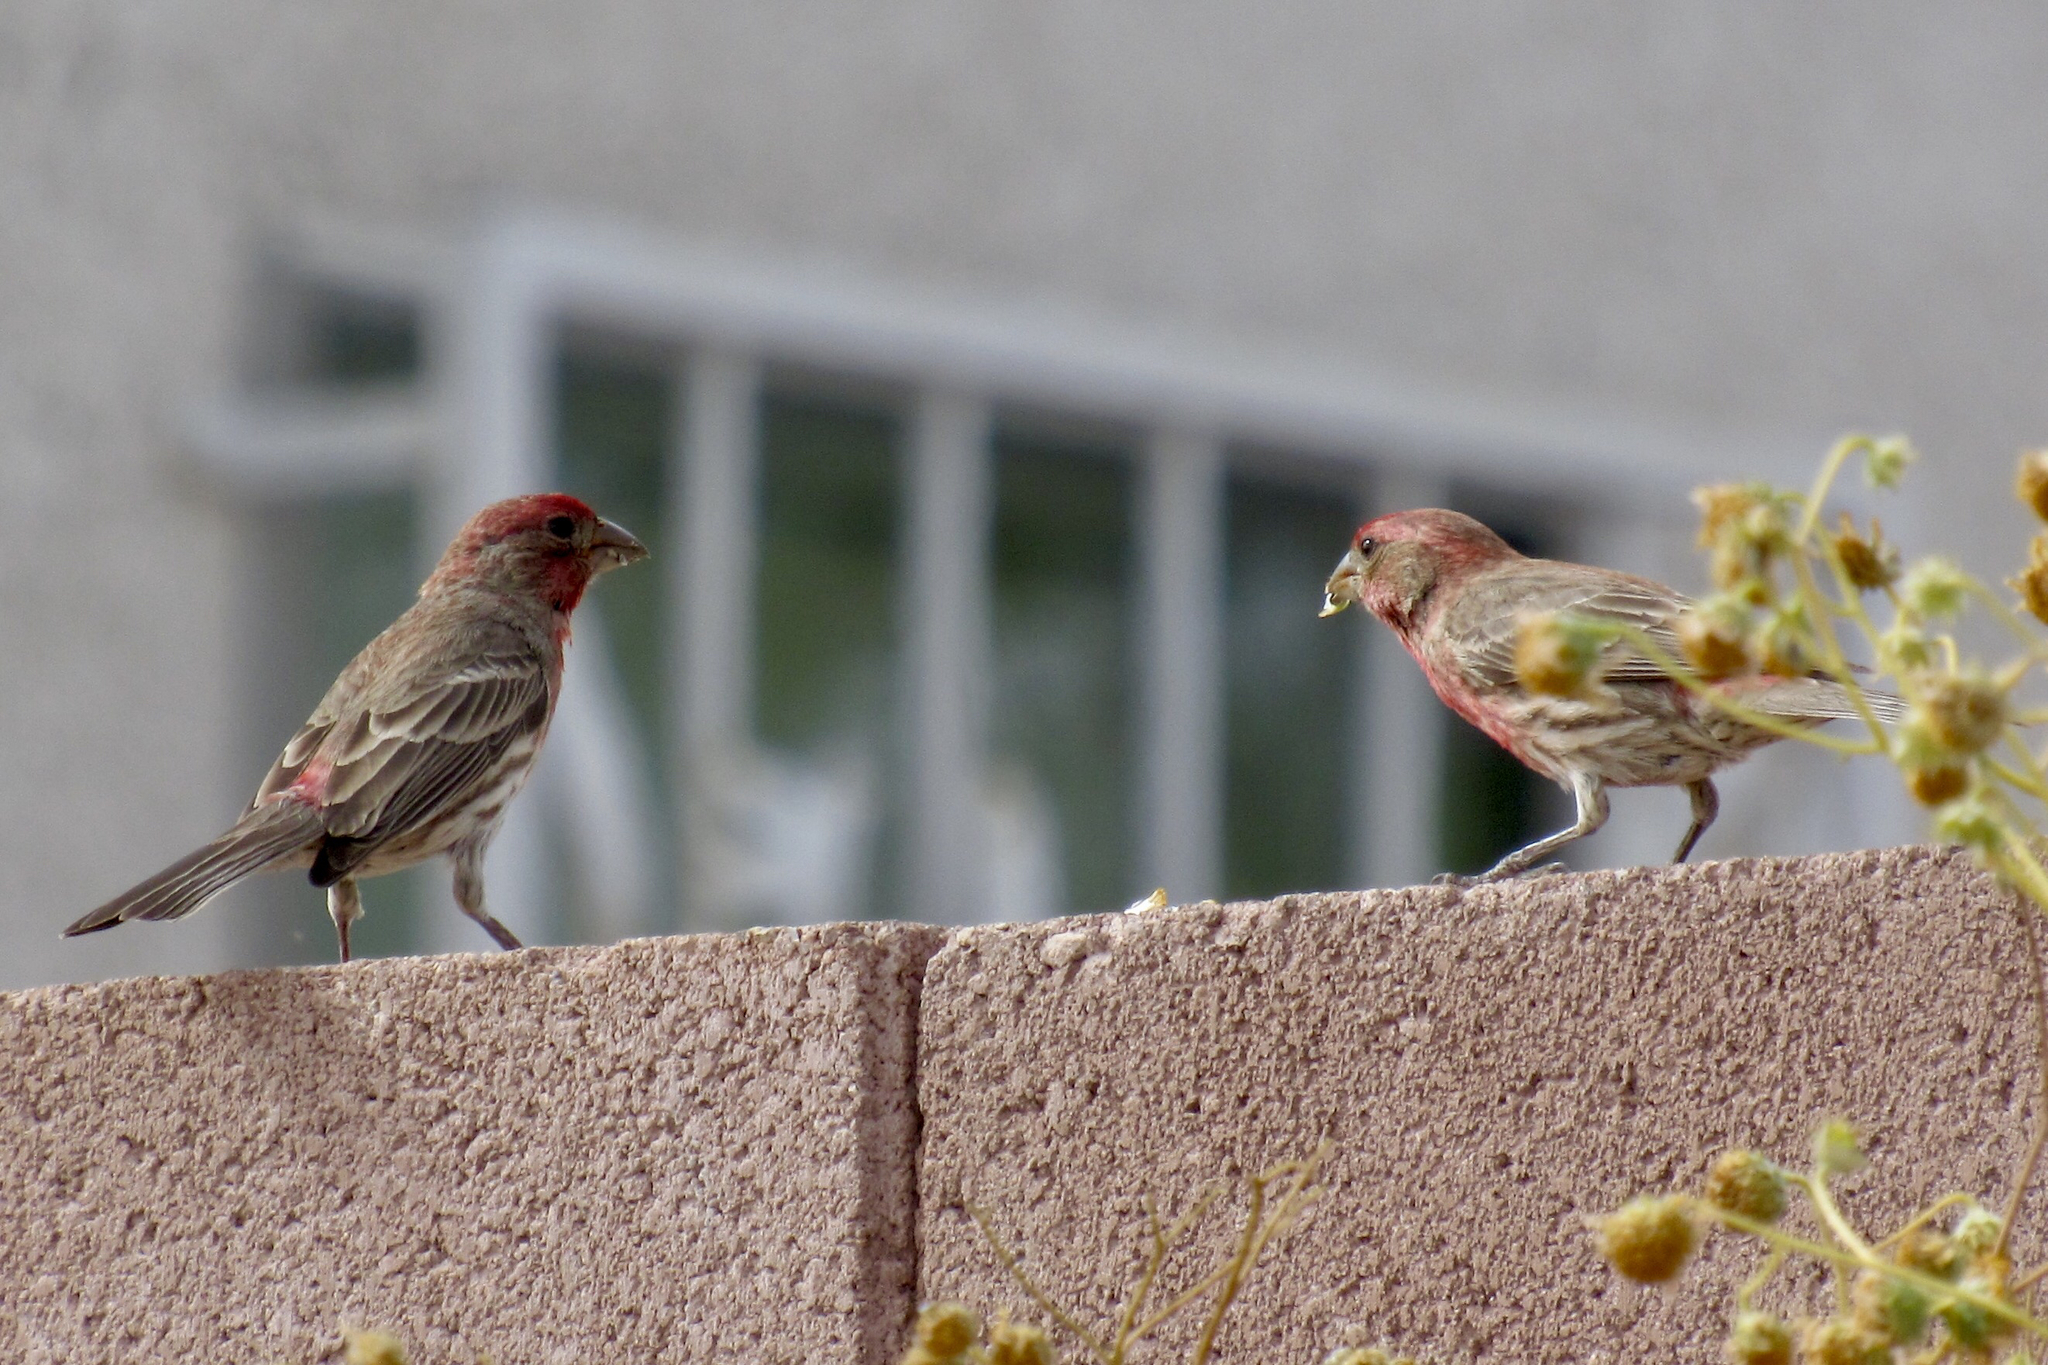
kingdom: Animalia
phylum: Chordata
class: Aves
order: Passeriformes
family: Fringillidae
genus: Haemorhous
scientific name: Haemorhous mexicanus
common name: House finch
